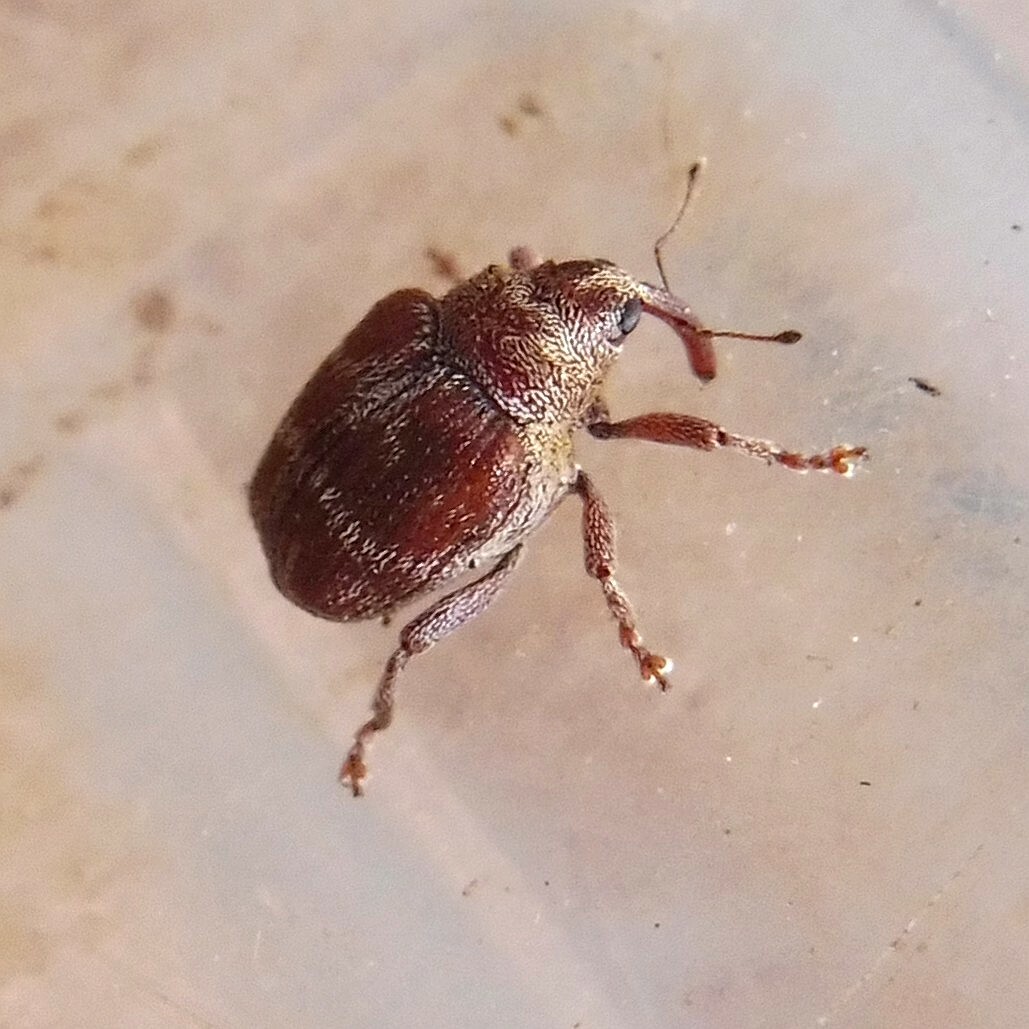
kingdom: Animalia
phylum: Arthropoda
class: Insecta
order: Coleoptera
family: Curculionidae
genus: Coeliodes
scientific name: Coeliodes transversealbofasciatus
